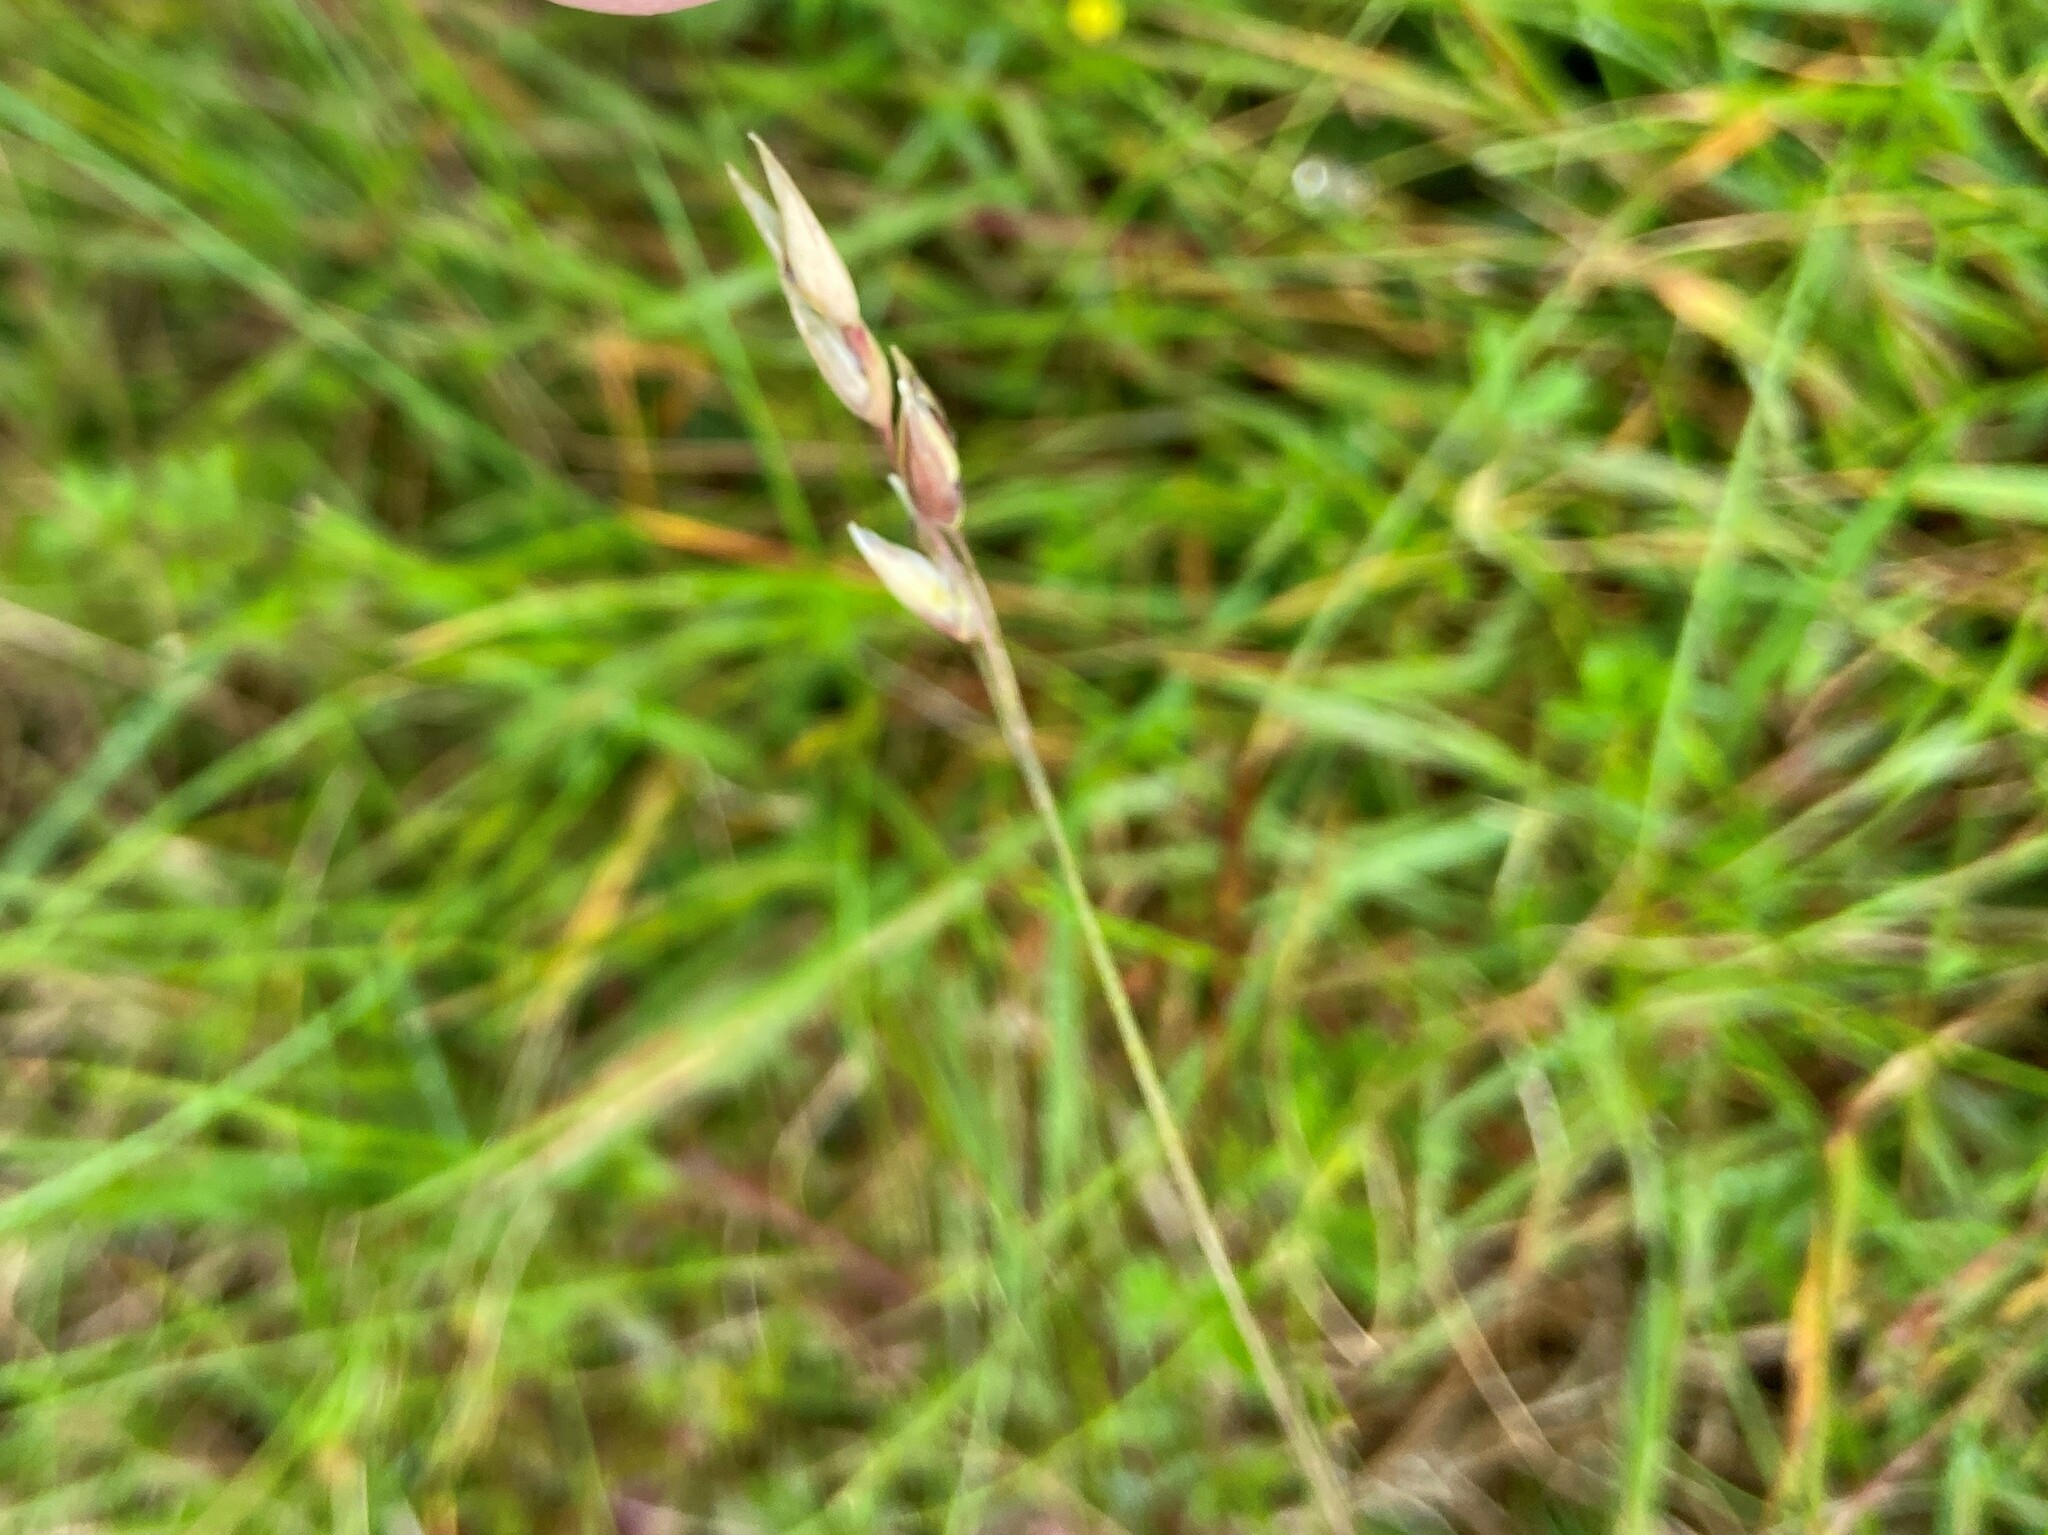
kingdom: Plantae
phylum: Tracheophyta
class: Liliopsida
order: Poales
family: Poaceae
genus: Danthonia
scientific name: Danthonia decumbens
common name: Common heathgrass
